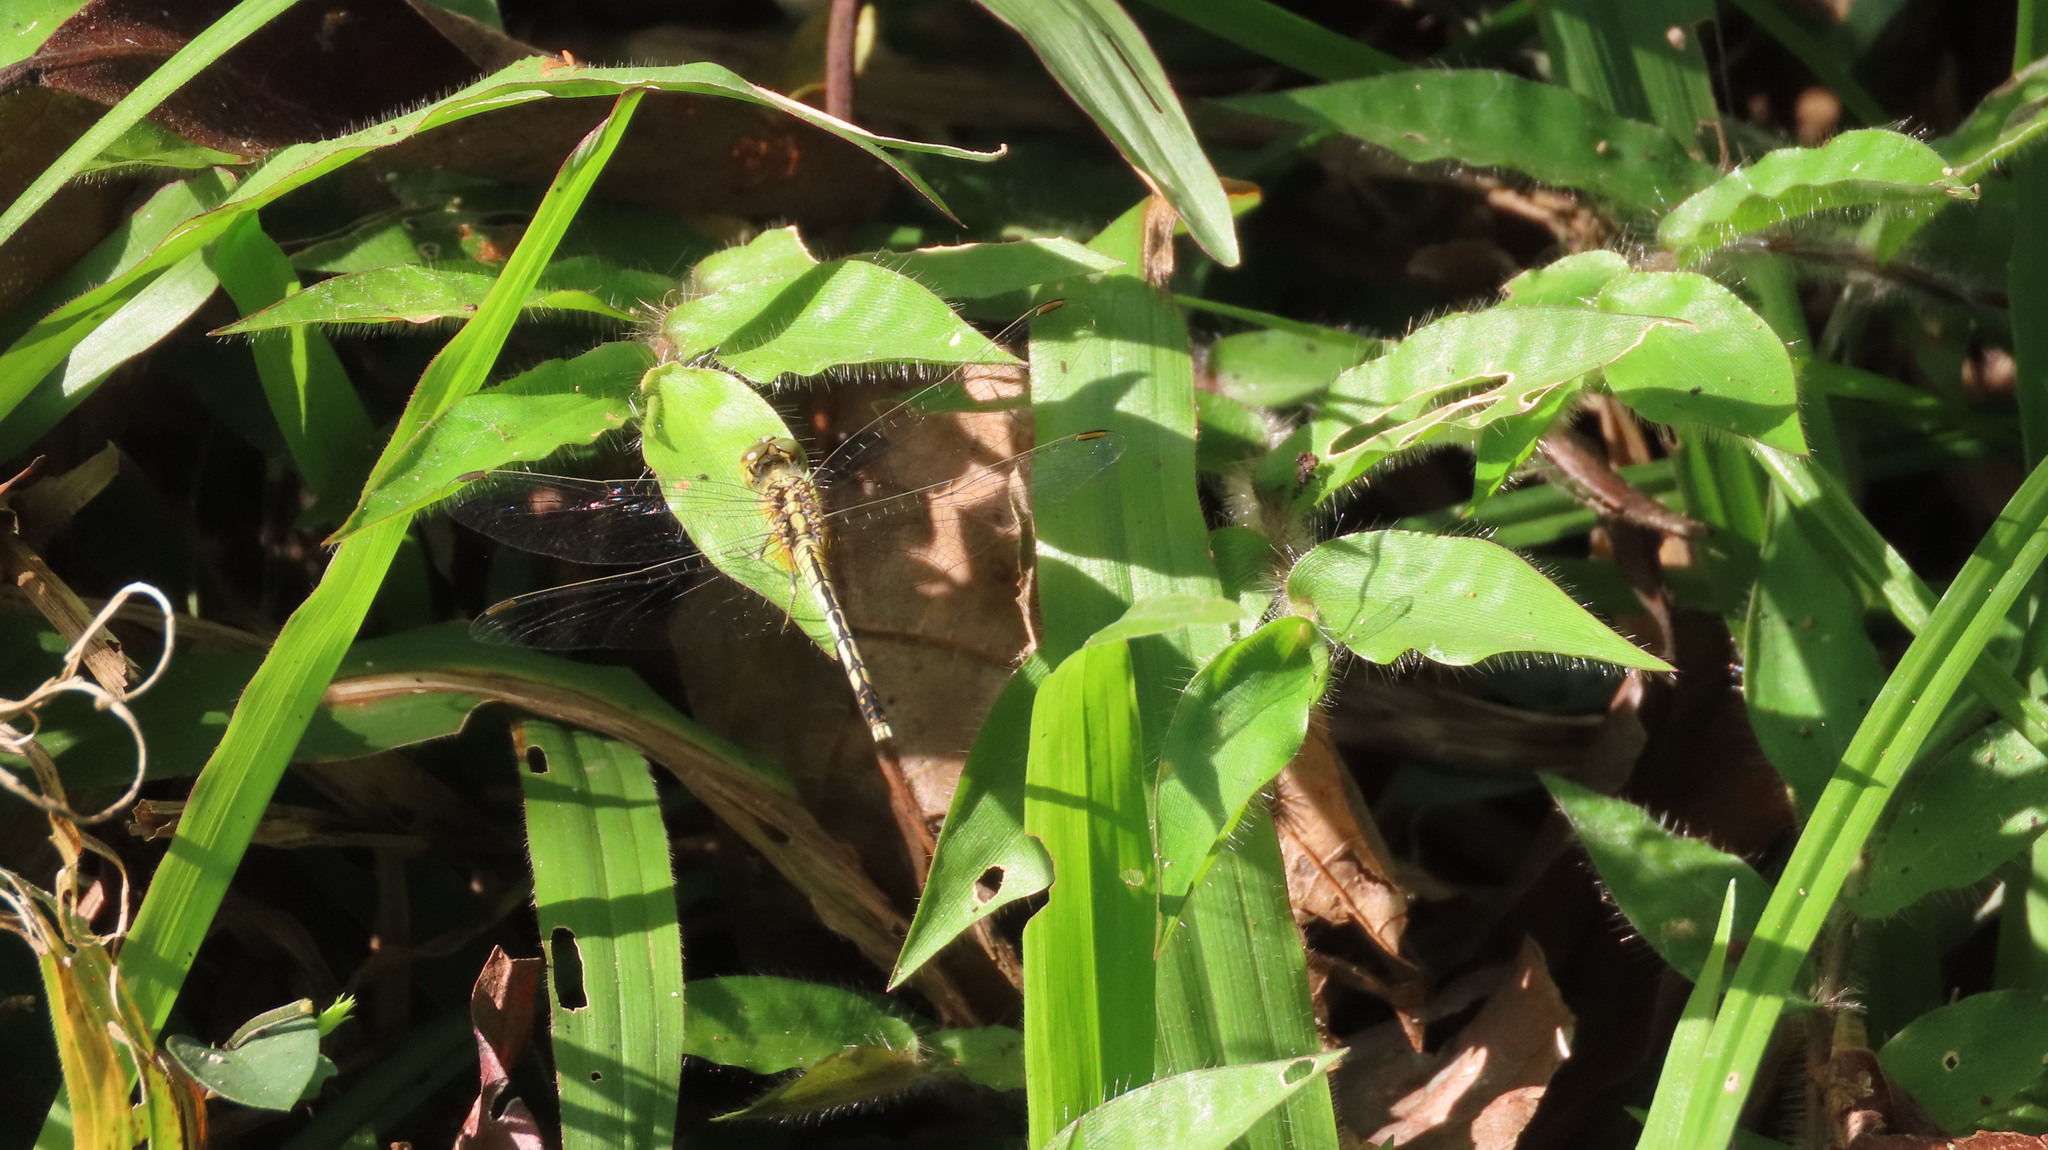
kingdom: Animalia
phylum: Arthropoda
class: Insecta
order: Odonata
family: Libellulidae
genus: Diplacodes
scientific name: Diplacodes trivialis
